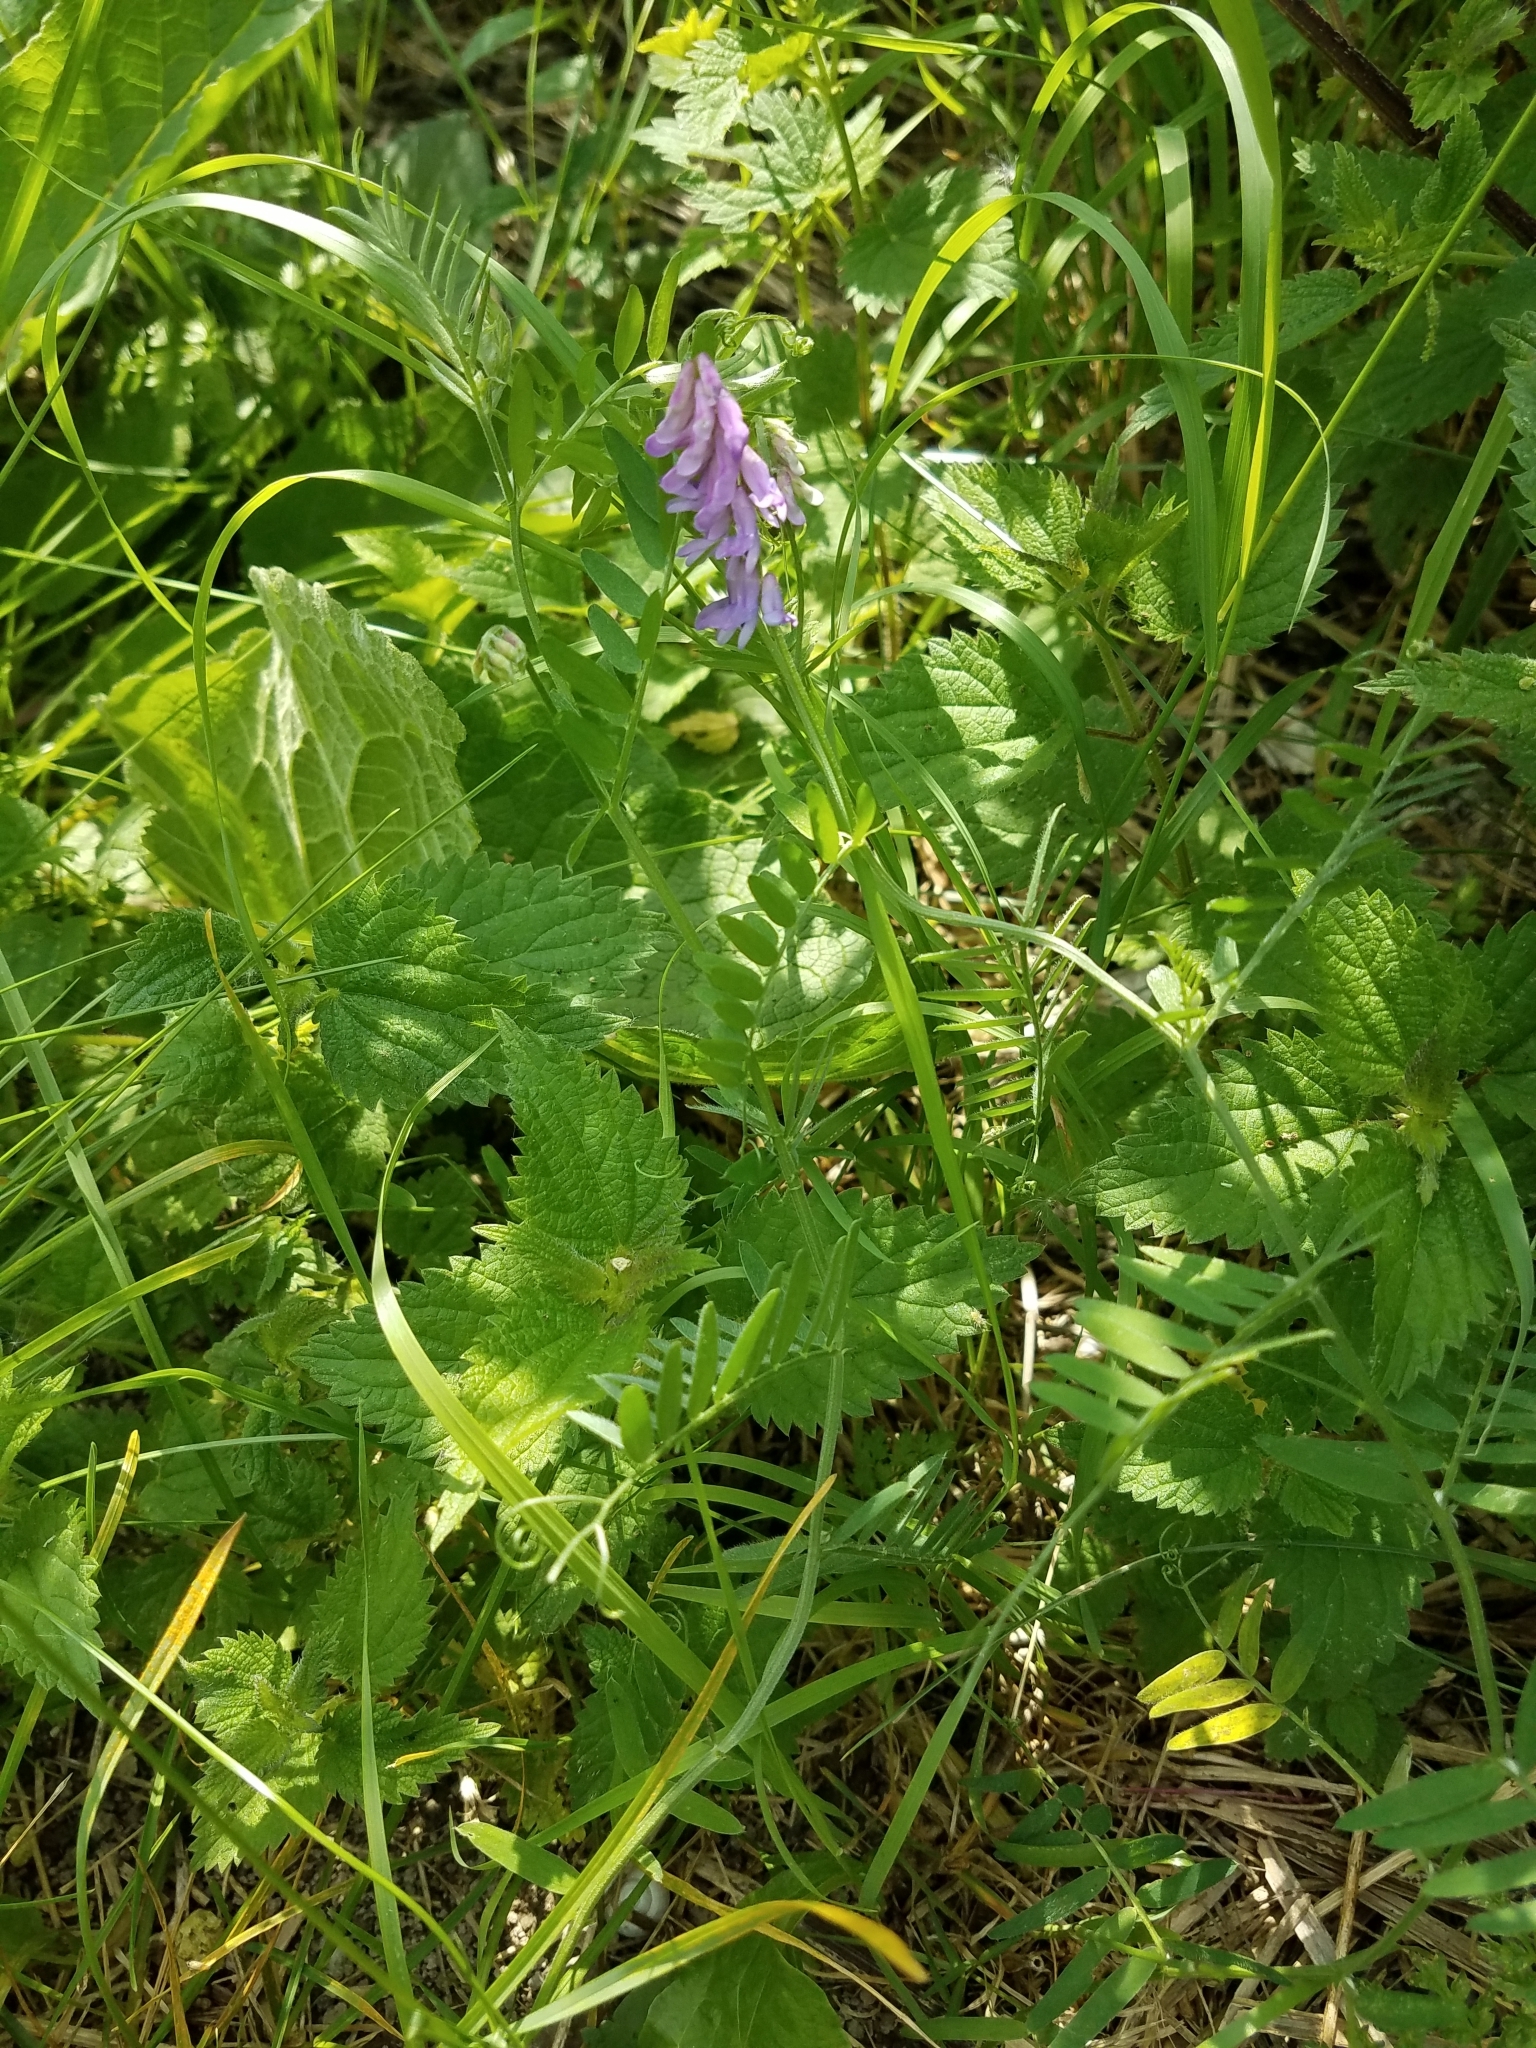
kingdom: Plantae
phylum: Tracheophyta
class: Magnoliopsida
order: Fabales
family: Fabaceae
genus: Vicia
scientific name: Vicia cracca
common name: Bird vetch
